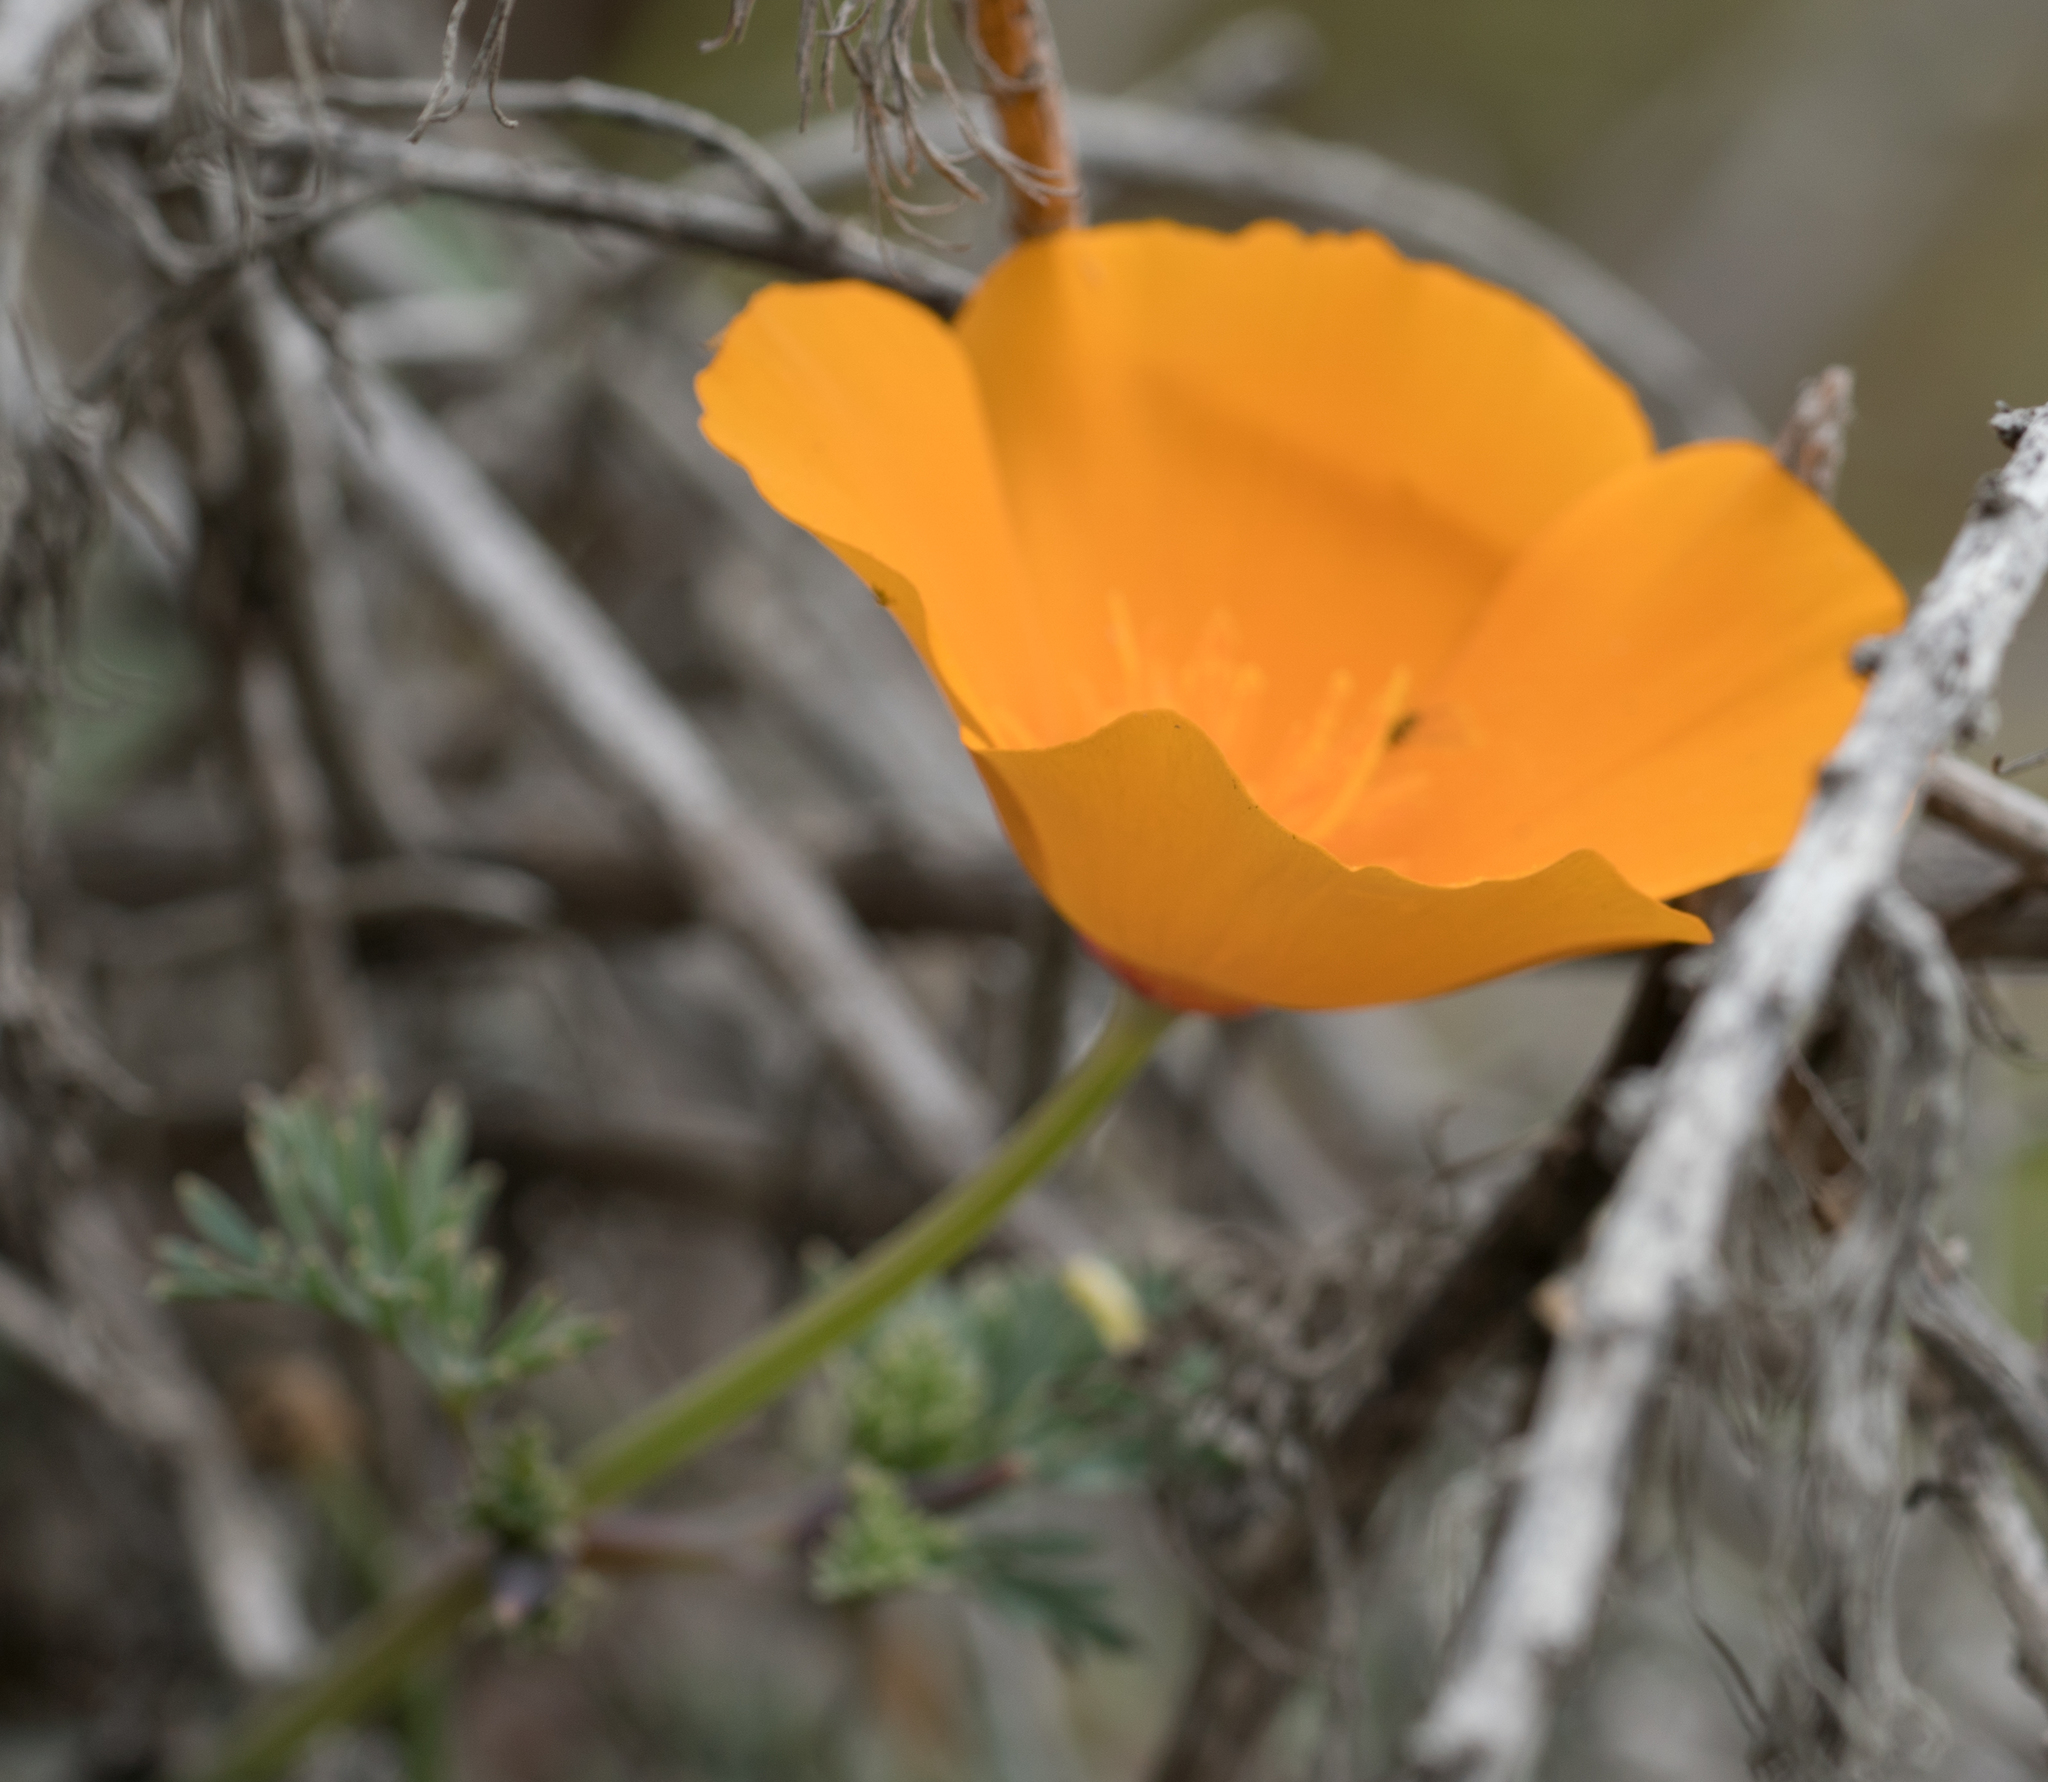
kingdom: Plantae
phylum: Tracheophyta
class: Magnoliopsida
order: Ranunculales
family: Papaveraceae
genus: Eschscholzia
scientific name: Eschscholzia californica
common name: California poppy
